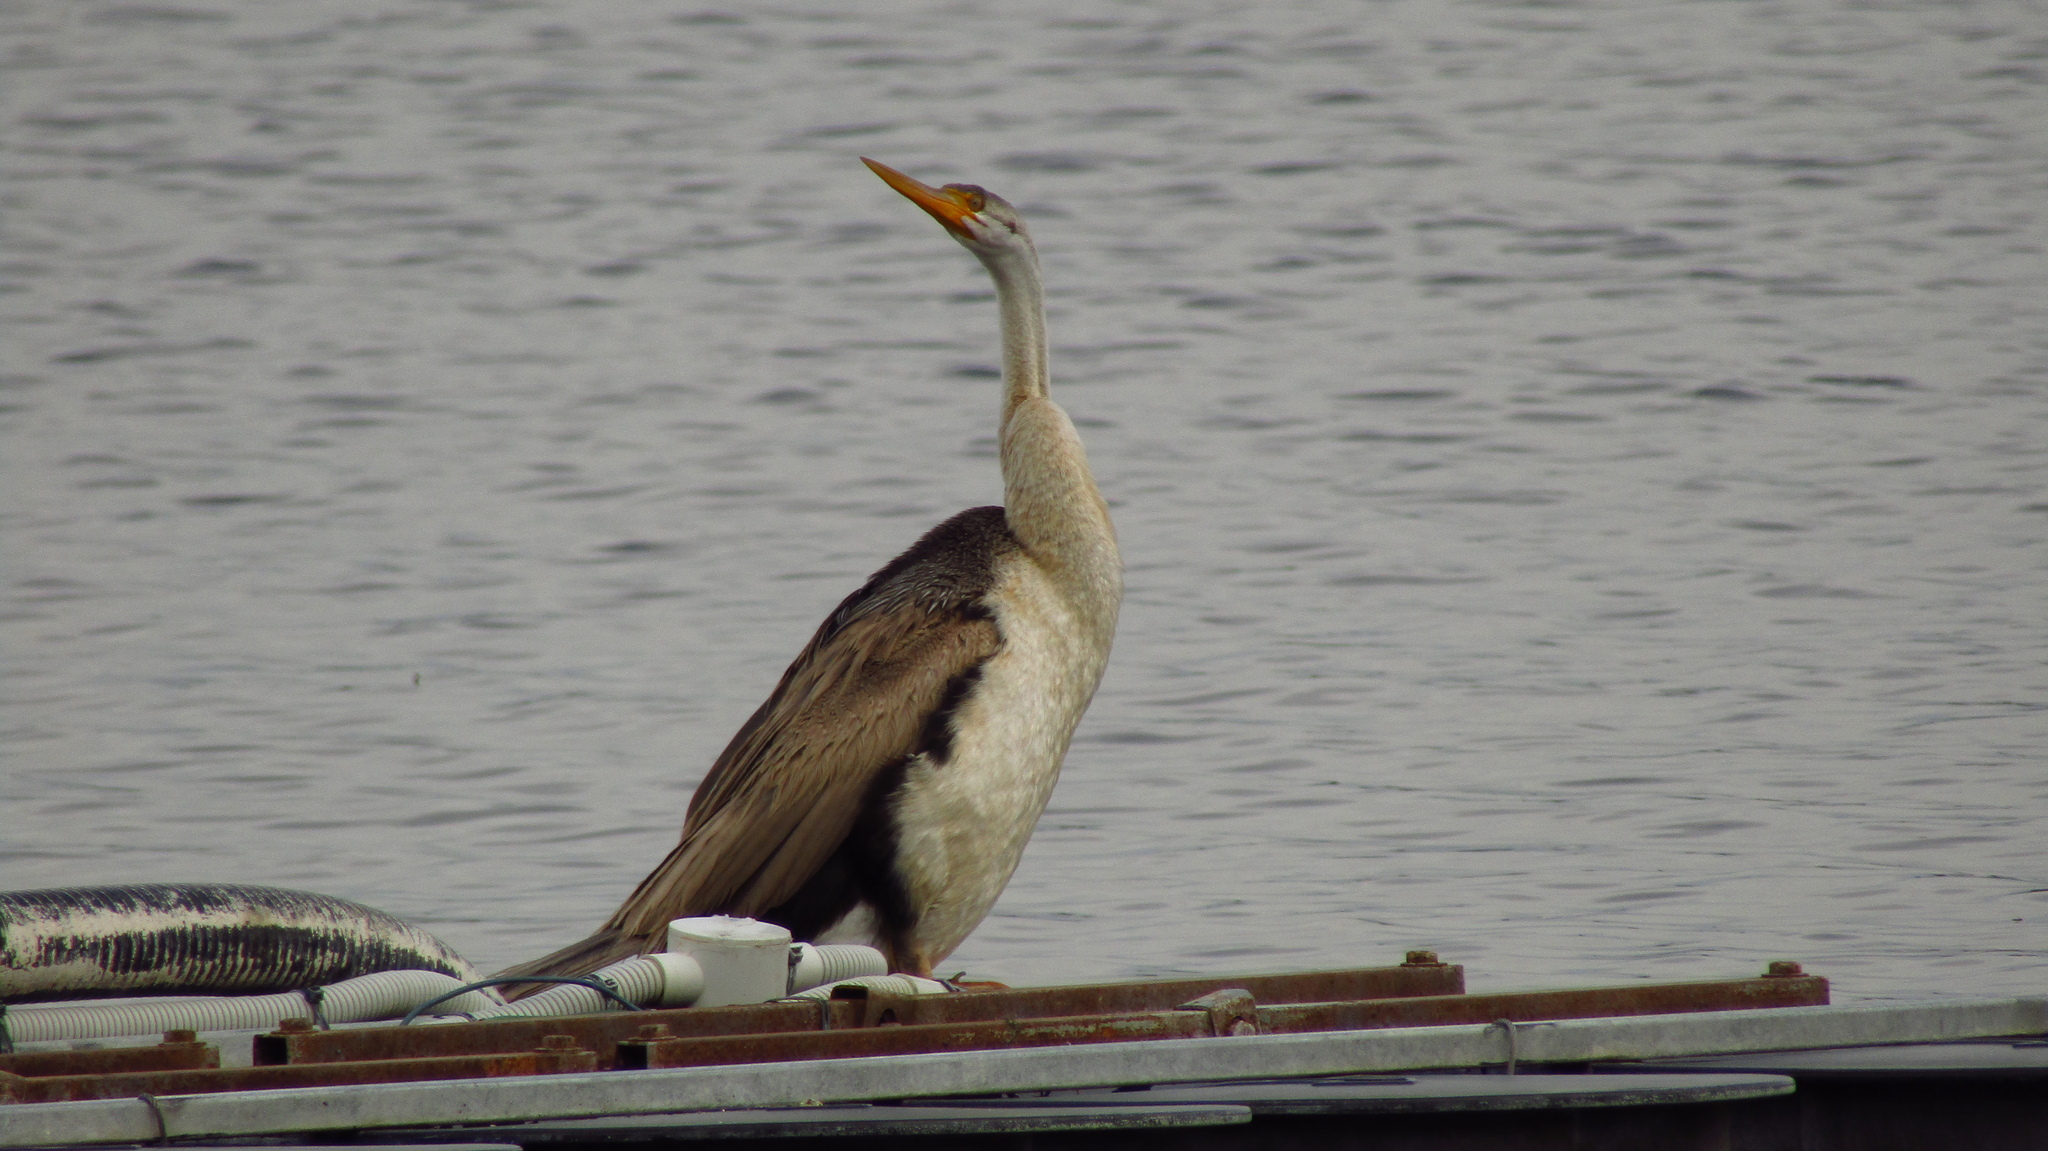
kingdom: Animalia
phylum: Chordata
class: Aves
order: Suliformes
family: Anhingidae
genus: Anhinga
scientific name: Anhinga novaehollandiae
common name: Australasian darter
